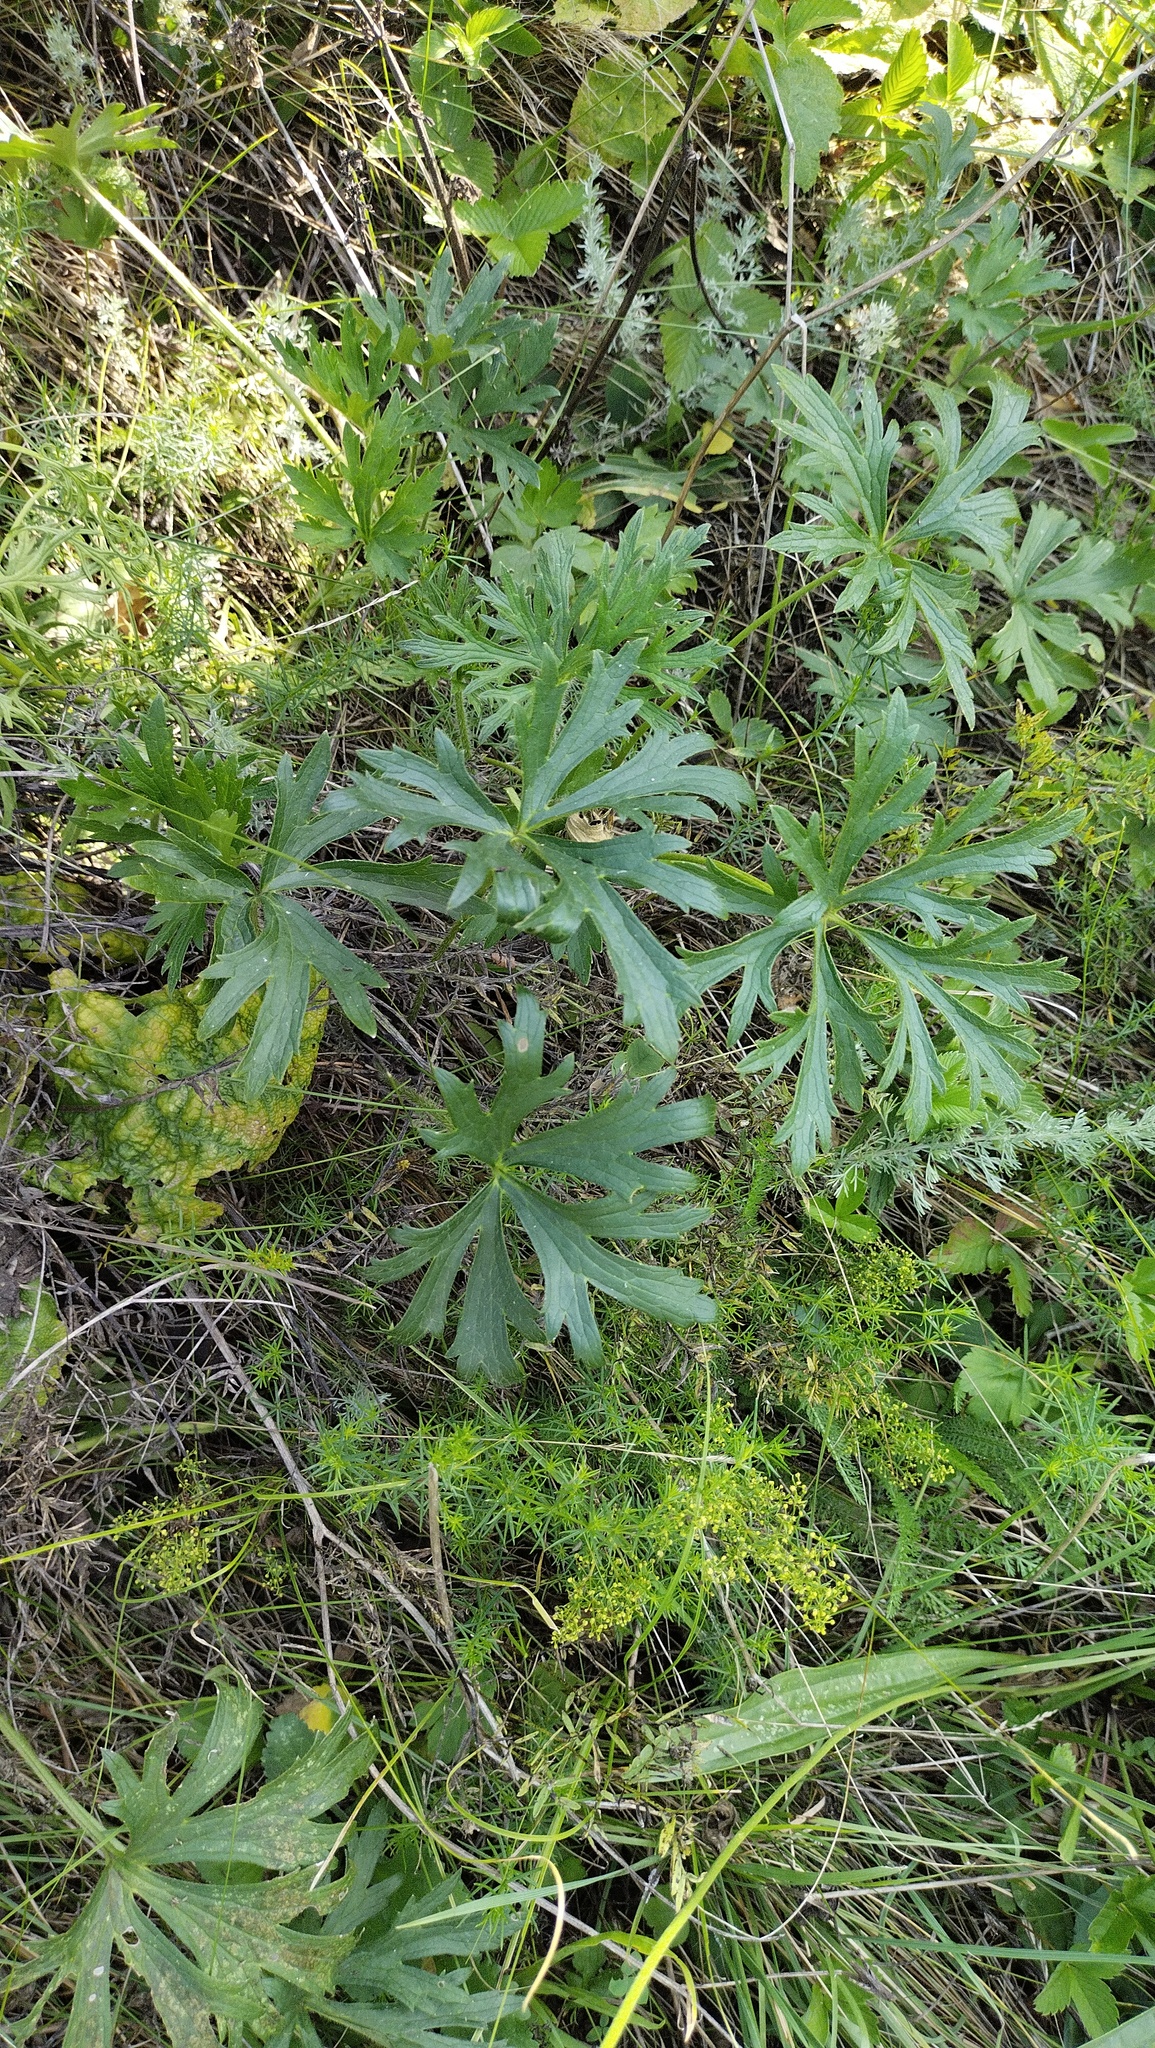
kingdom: Plantae
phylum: Tracheophyta
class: Magnoliopsida
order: Ranunculales
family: Ranunculaceae
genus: Ranunculus
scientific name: Ranunculus polyanthemos
